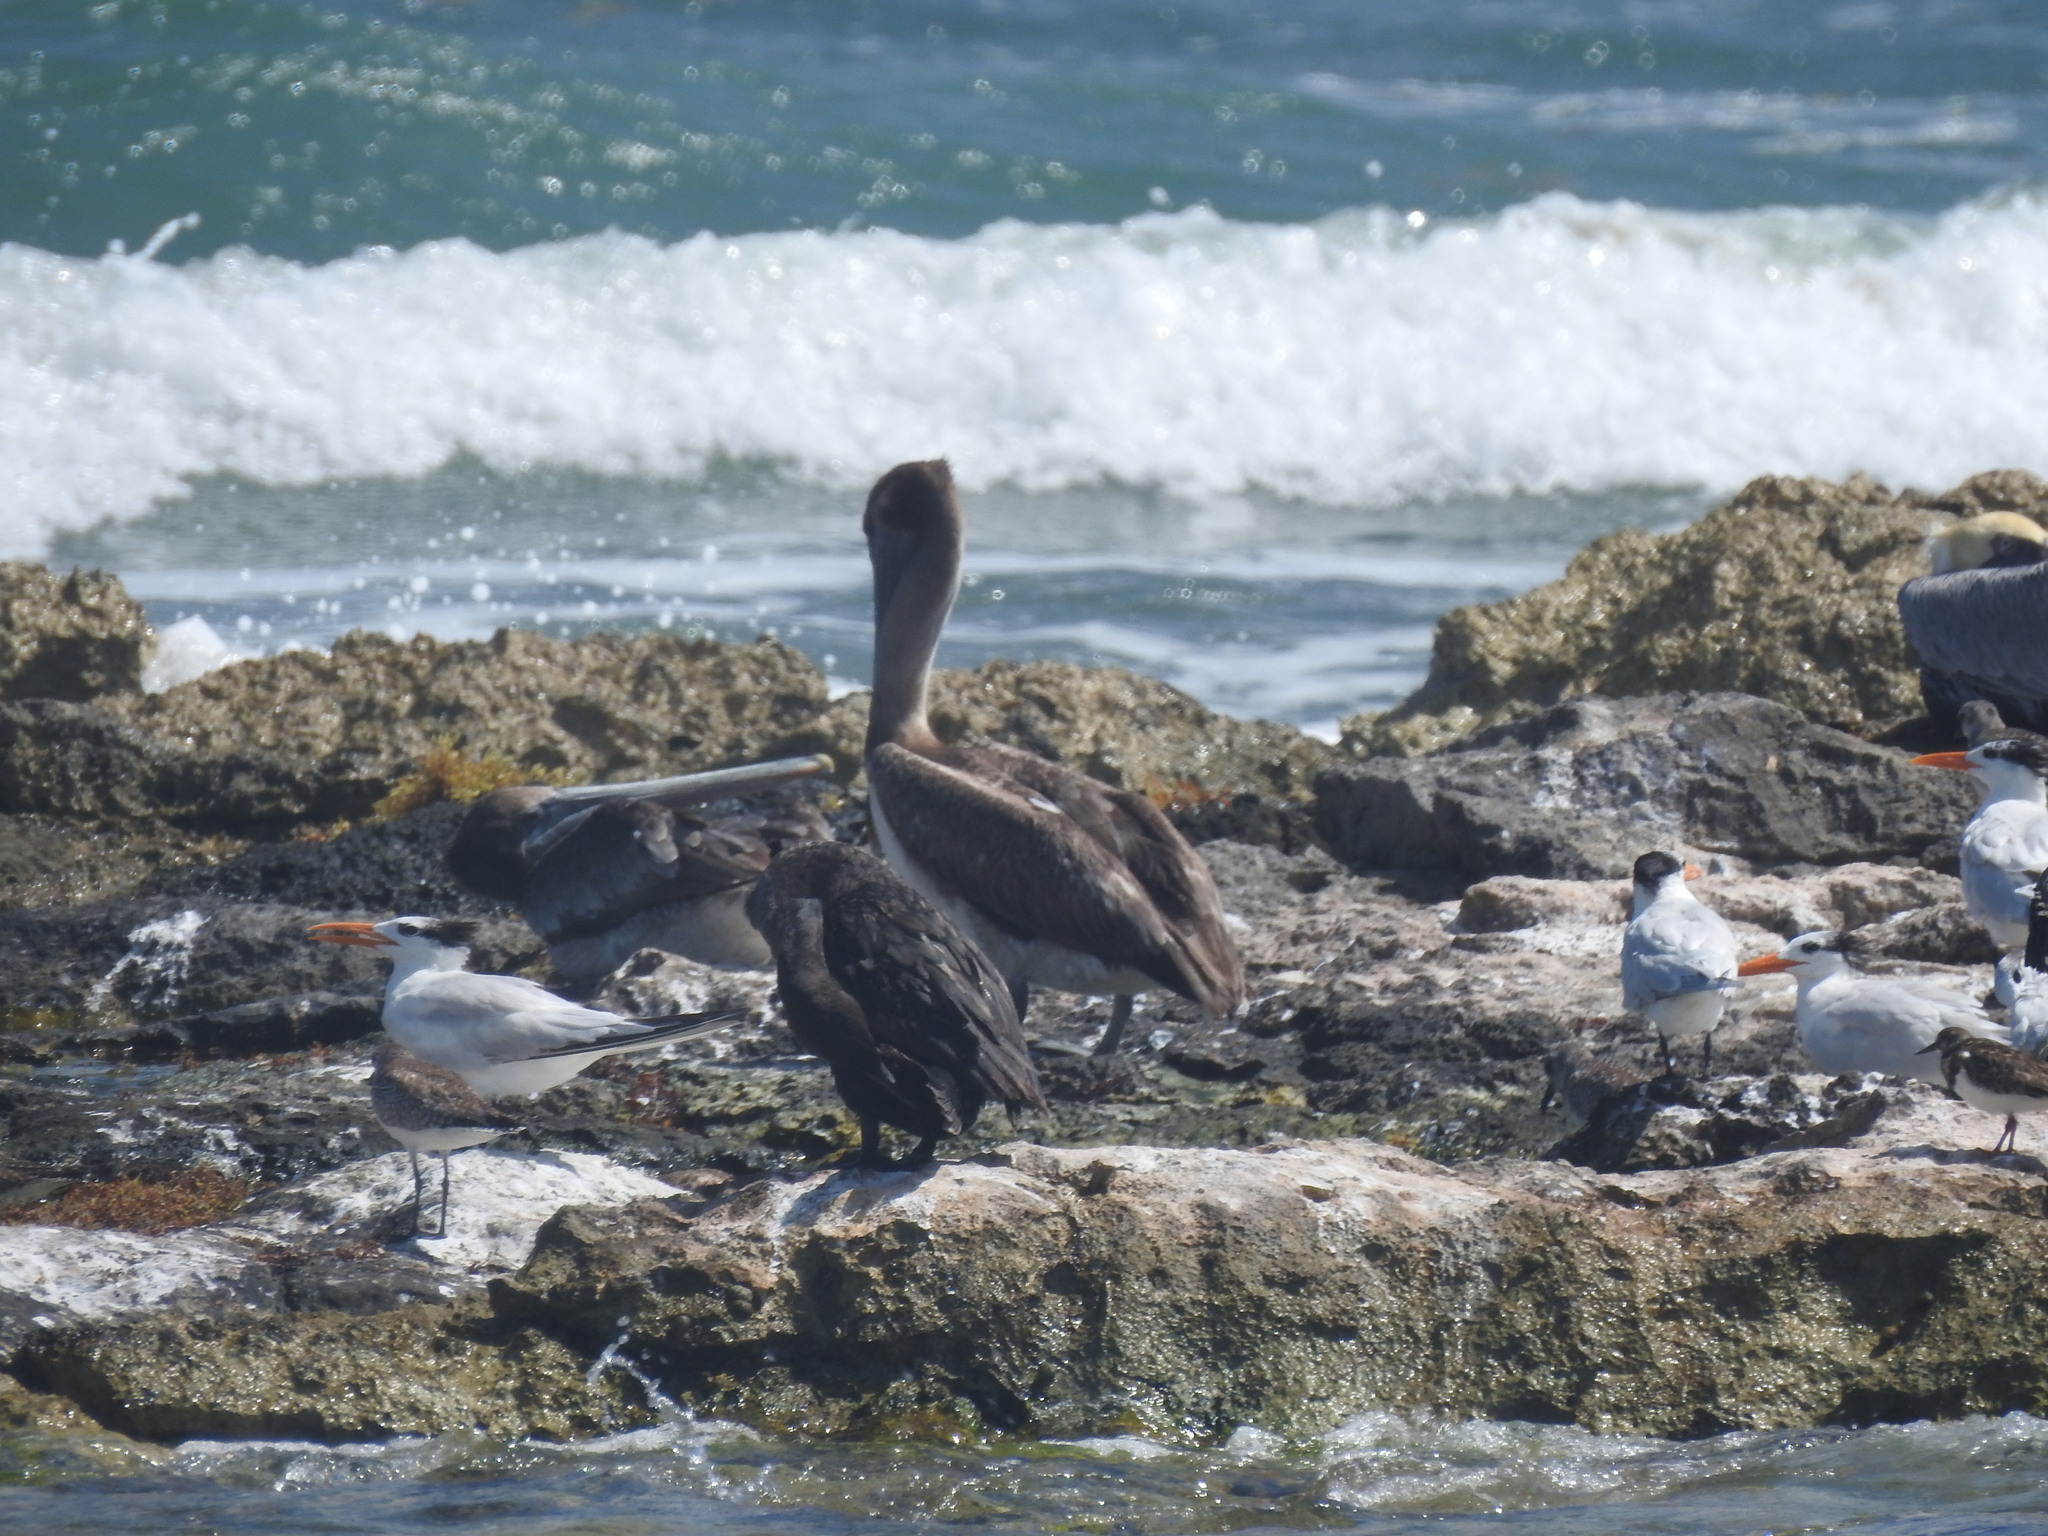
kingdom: Animalia
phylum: Chordata
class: Aves
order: Pelecaniformes
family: Pelecanidae
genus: Pelecanus
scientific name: Pelecanus occidentalis
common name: Brown pelican
